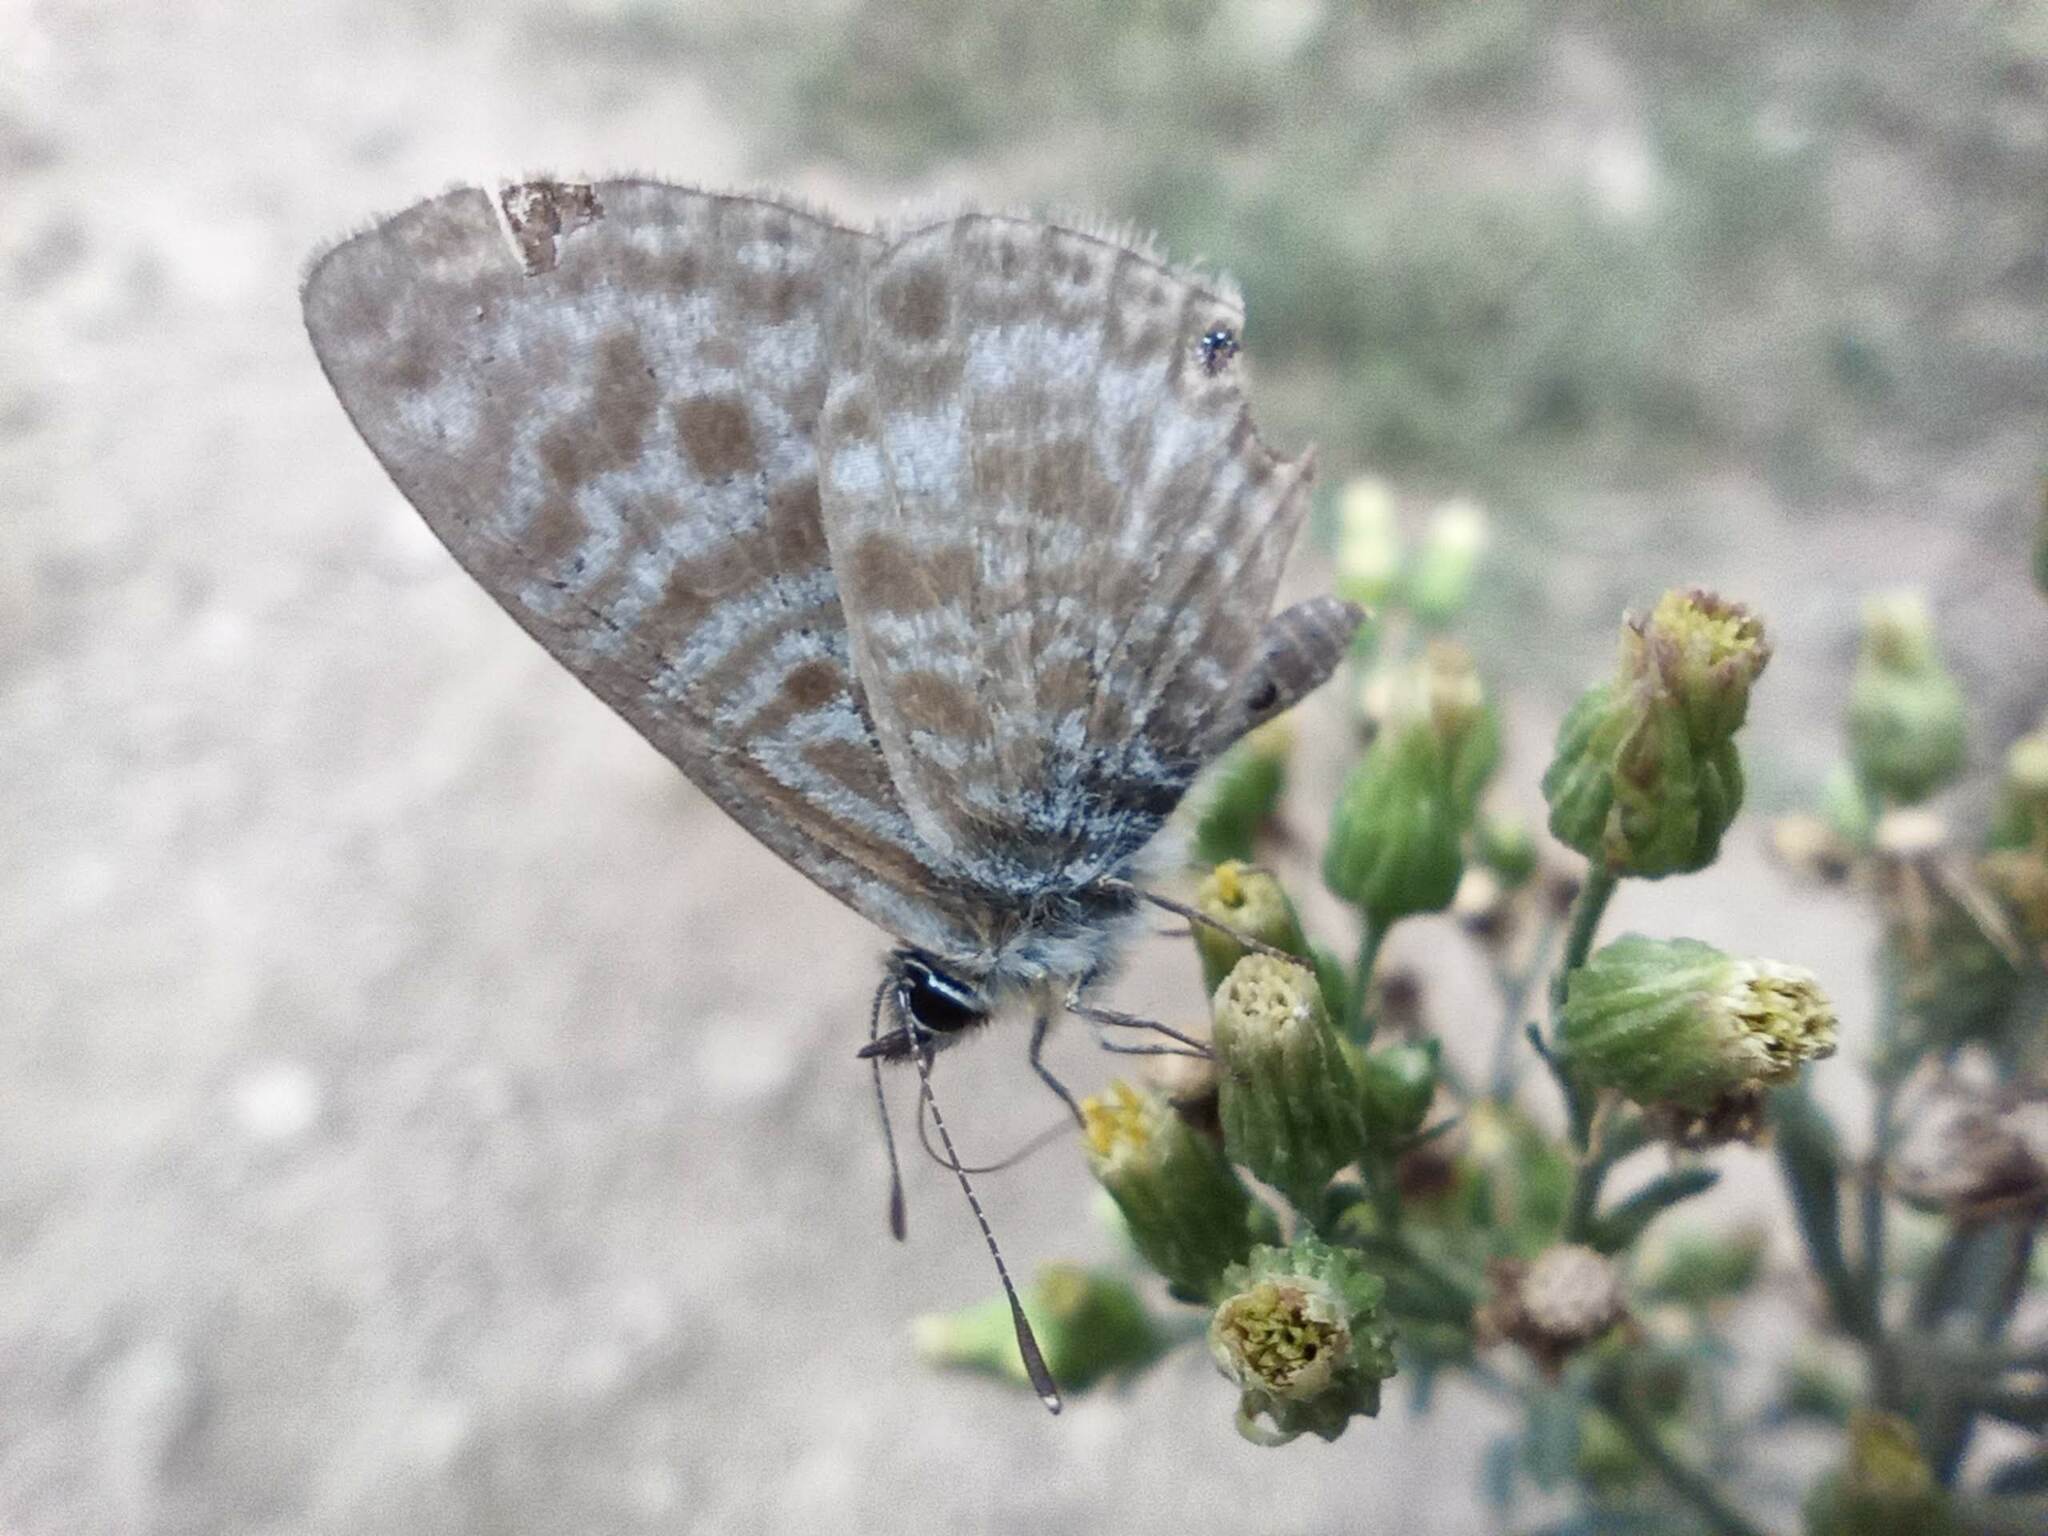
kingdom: Animalia
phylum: Arthropoda
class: Insecta
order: Lepidoptera
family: Lycaenidae
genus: Leptotes
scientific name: Leptotes pirithous
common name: Lang's short-tailed blue
